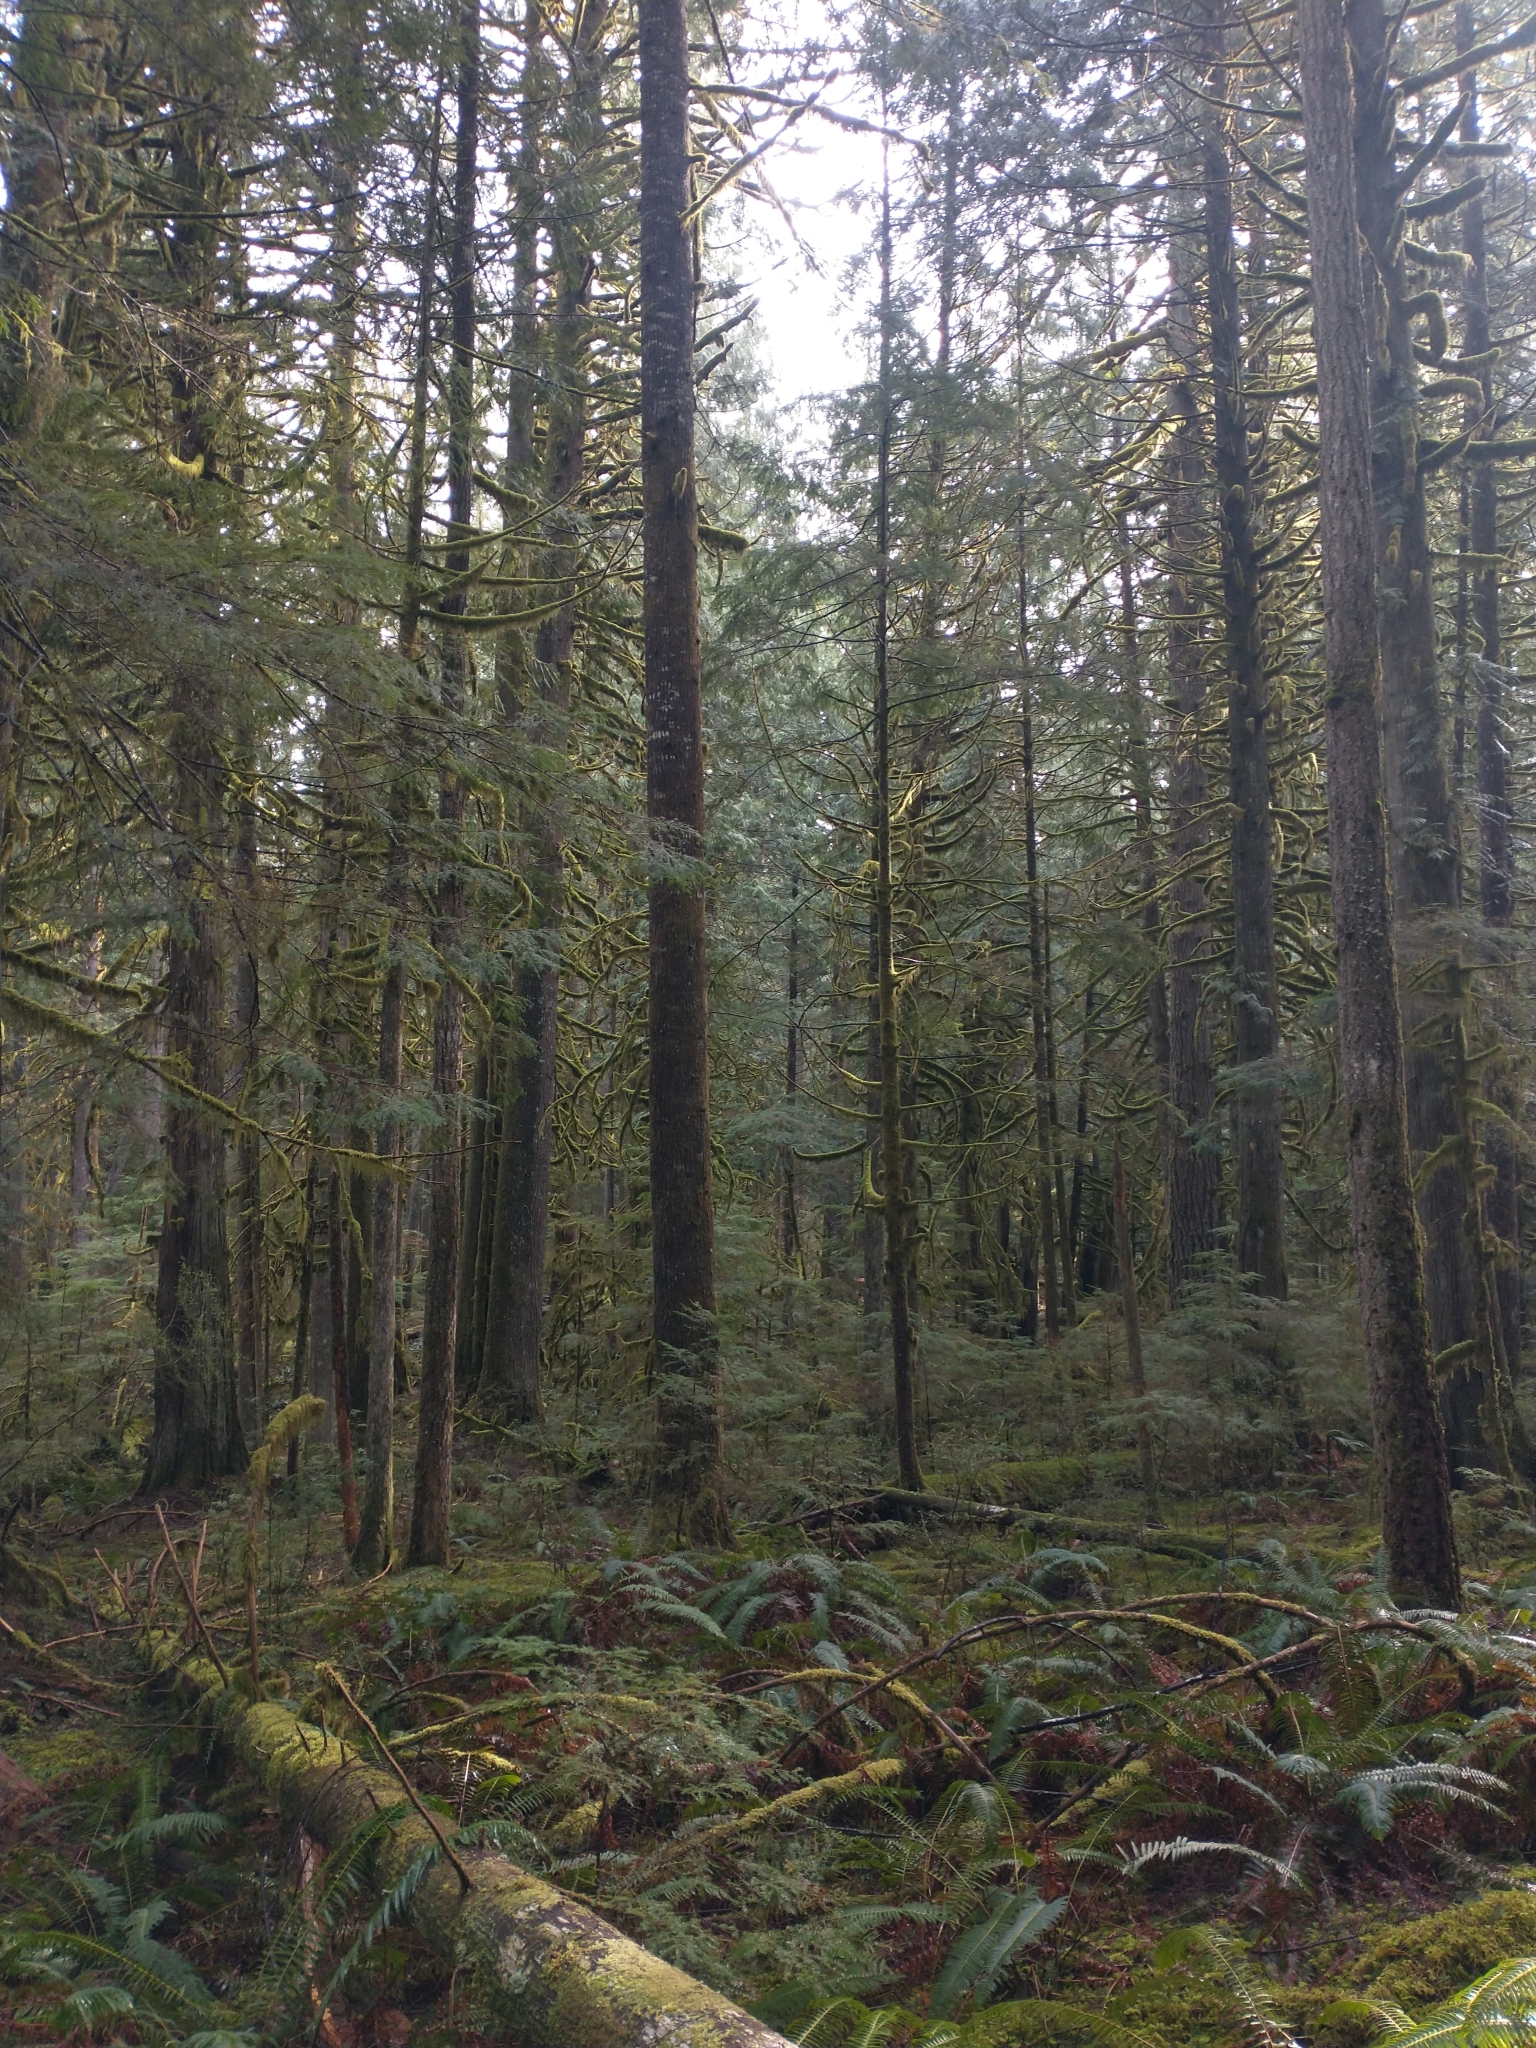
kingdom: Plantae
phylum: Tracheophyta
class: Polypodiopsida
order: Polypodiales
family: Dryopteridaceae
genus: Polystichum
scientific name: Polystichum munitum
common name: Western sword-fern
